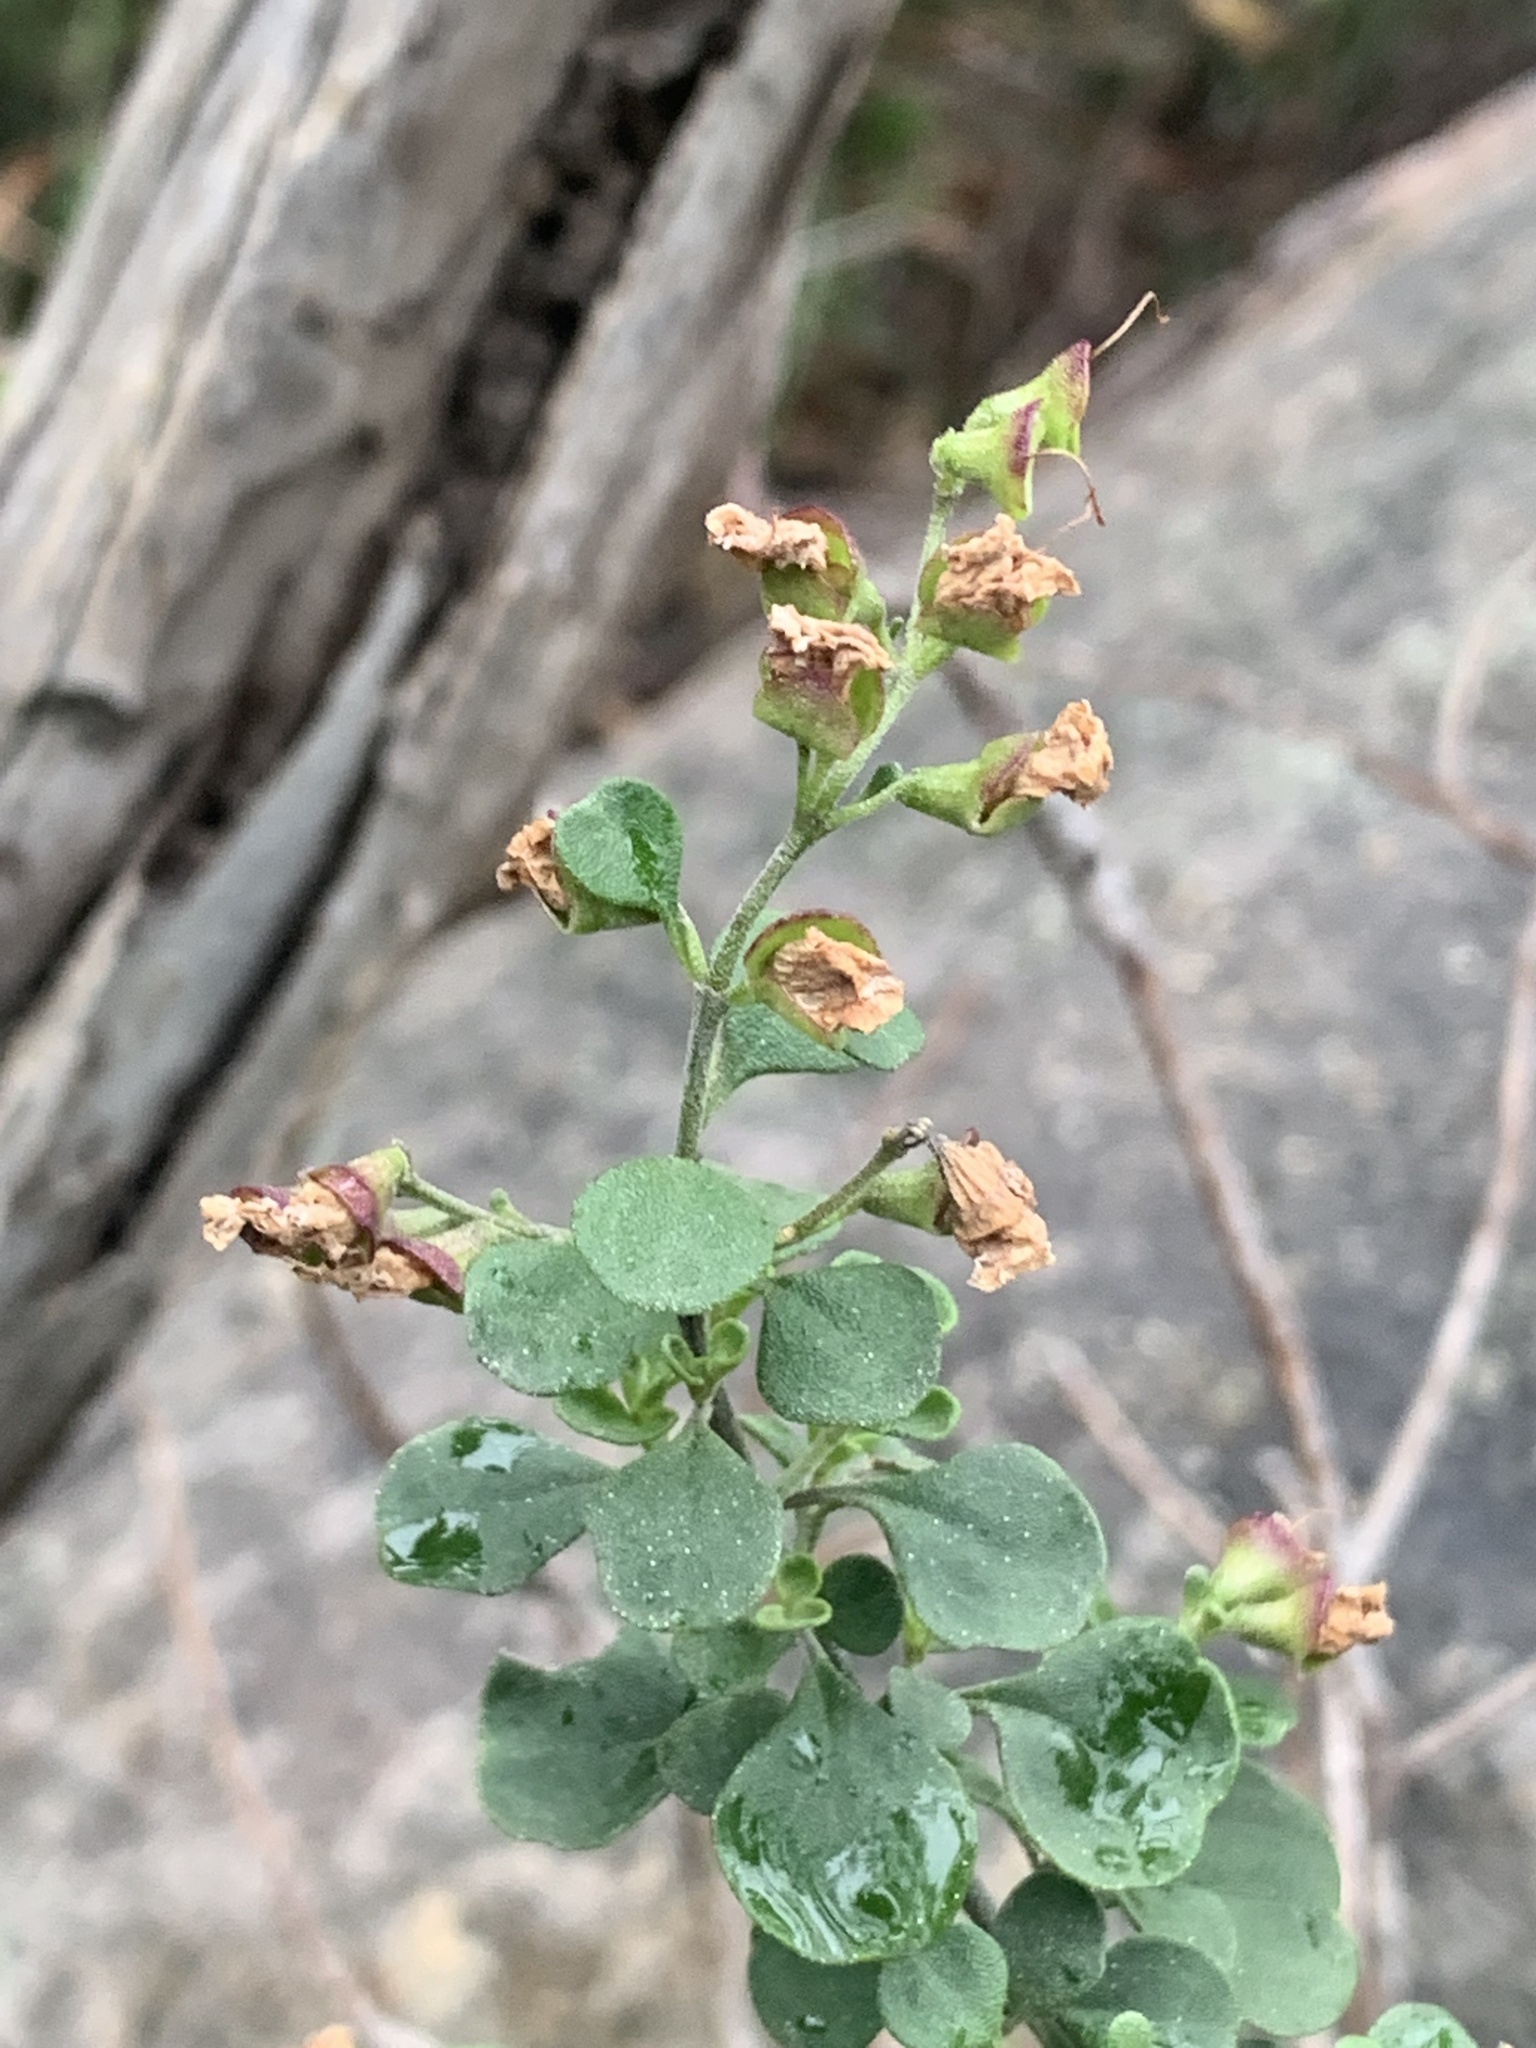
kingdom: Plantae
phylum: Tracheophyta
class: Magnoliopsida
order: Lamiales
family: Lamiaceae
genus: Prostanthera
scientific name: Prostanthera rotundifolia
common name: Round-leaf mintbush
